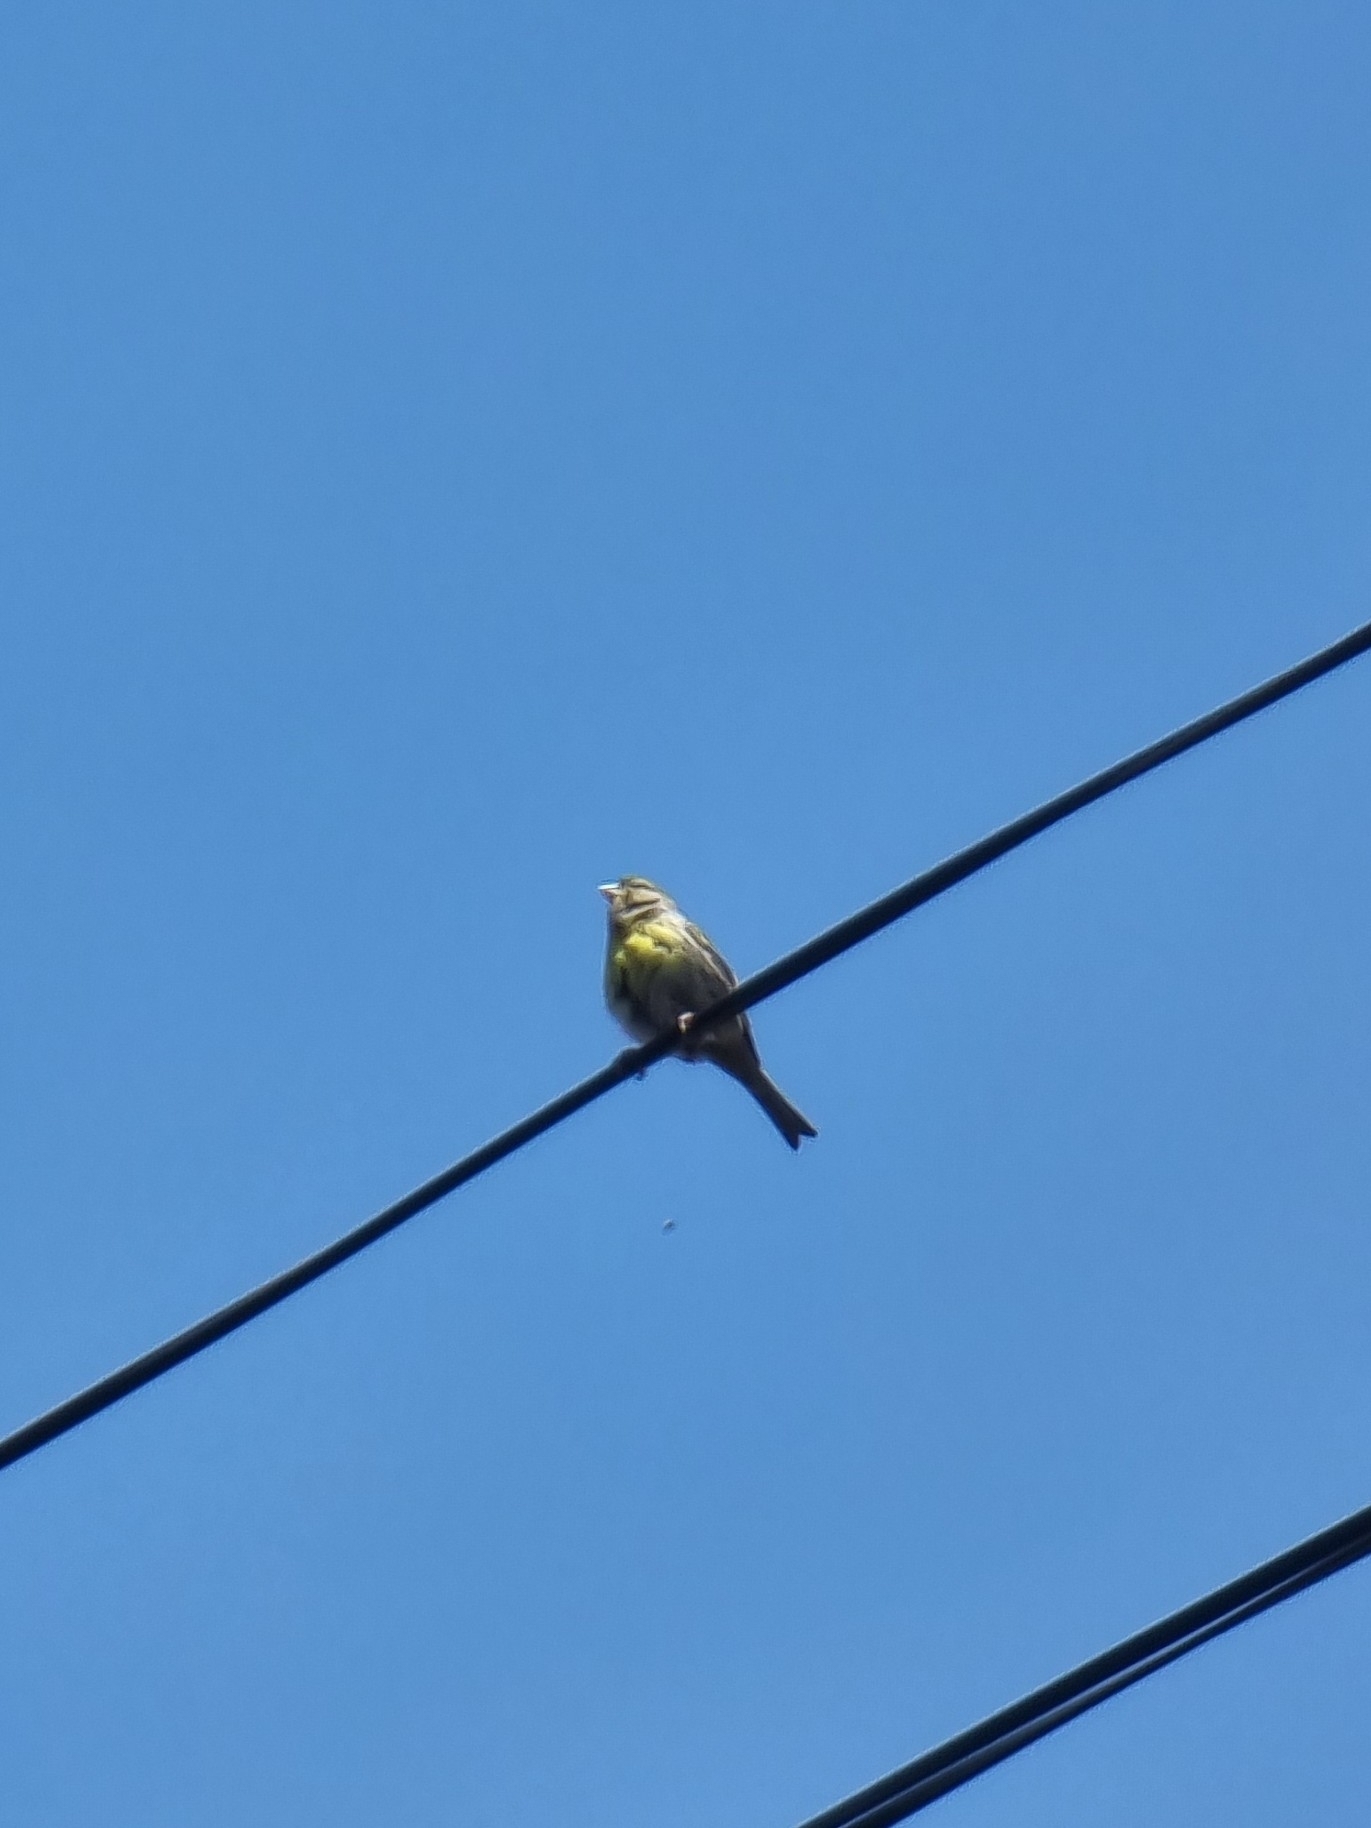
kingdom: Animalia
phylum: Chordata
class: Aves
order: Passeriformes
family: Fringillidae
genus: Serinus
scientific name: Serinus canaria
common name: Atlantic canary
